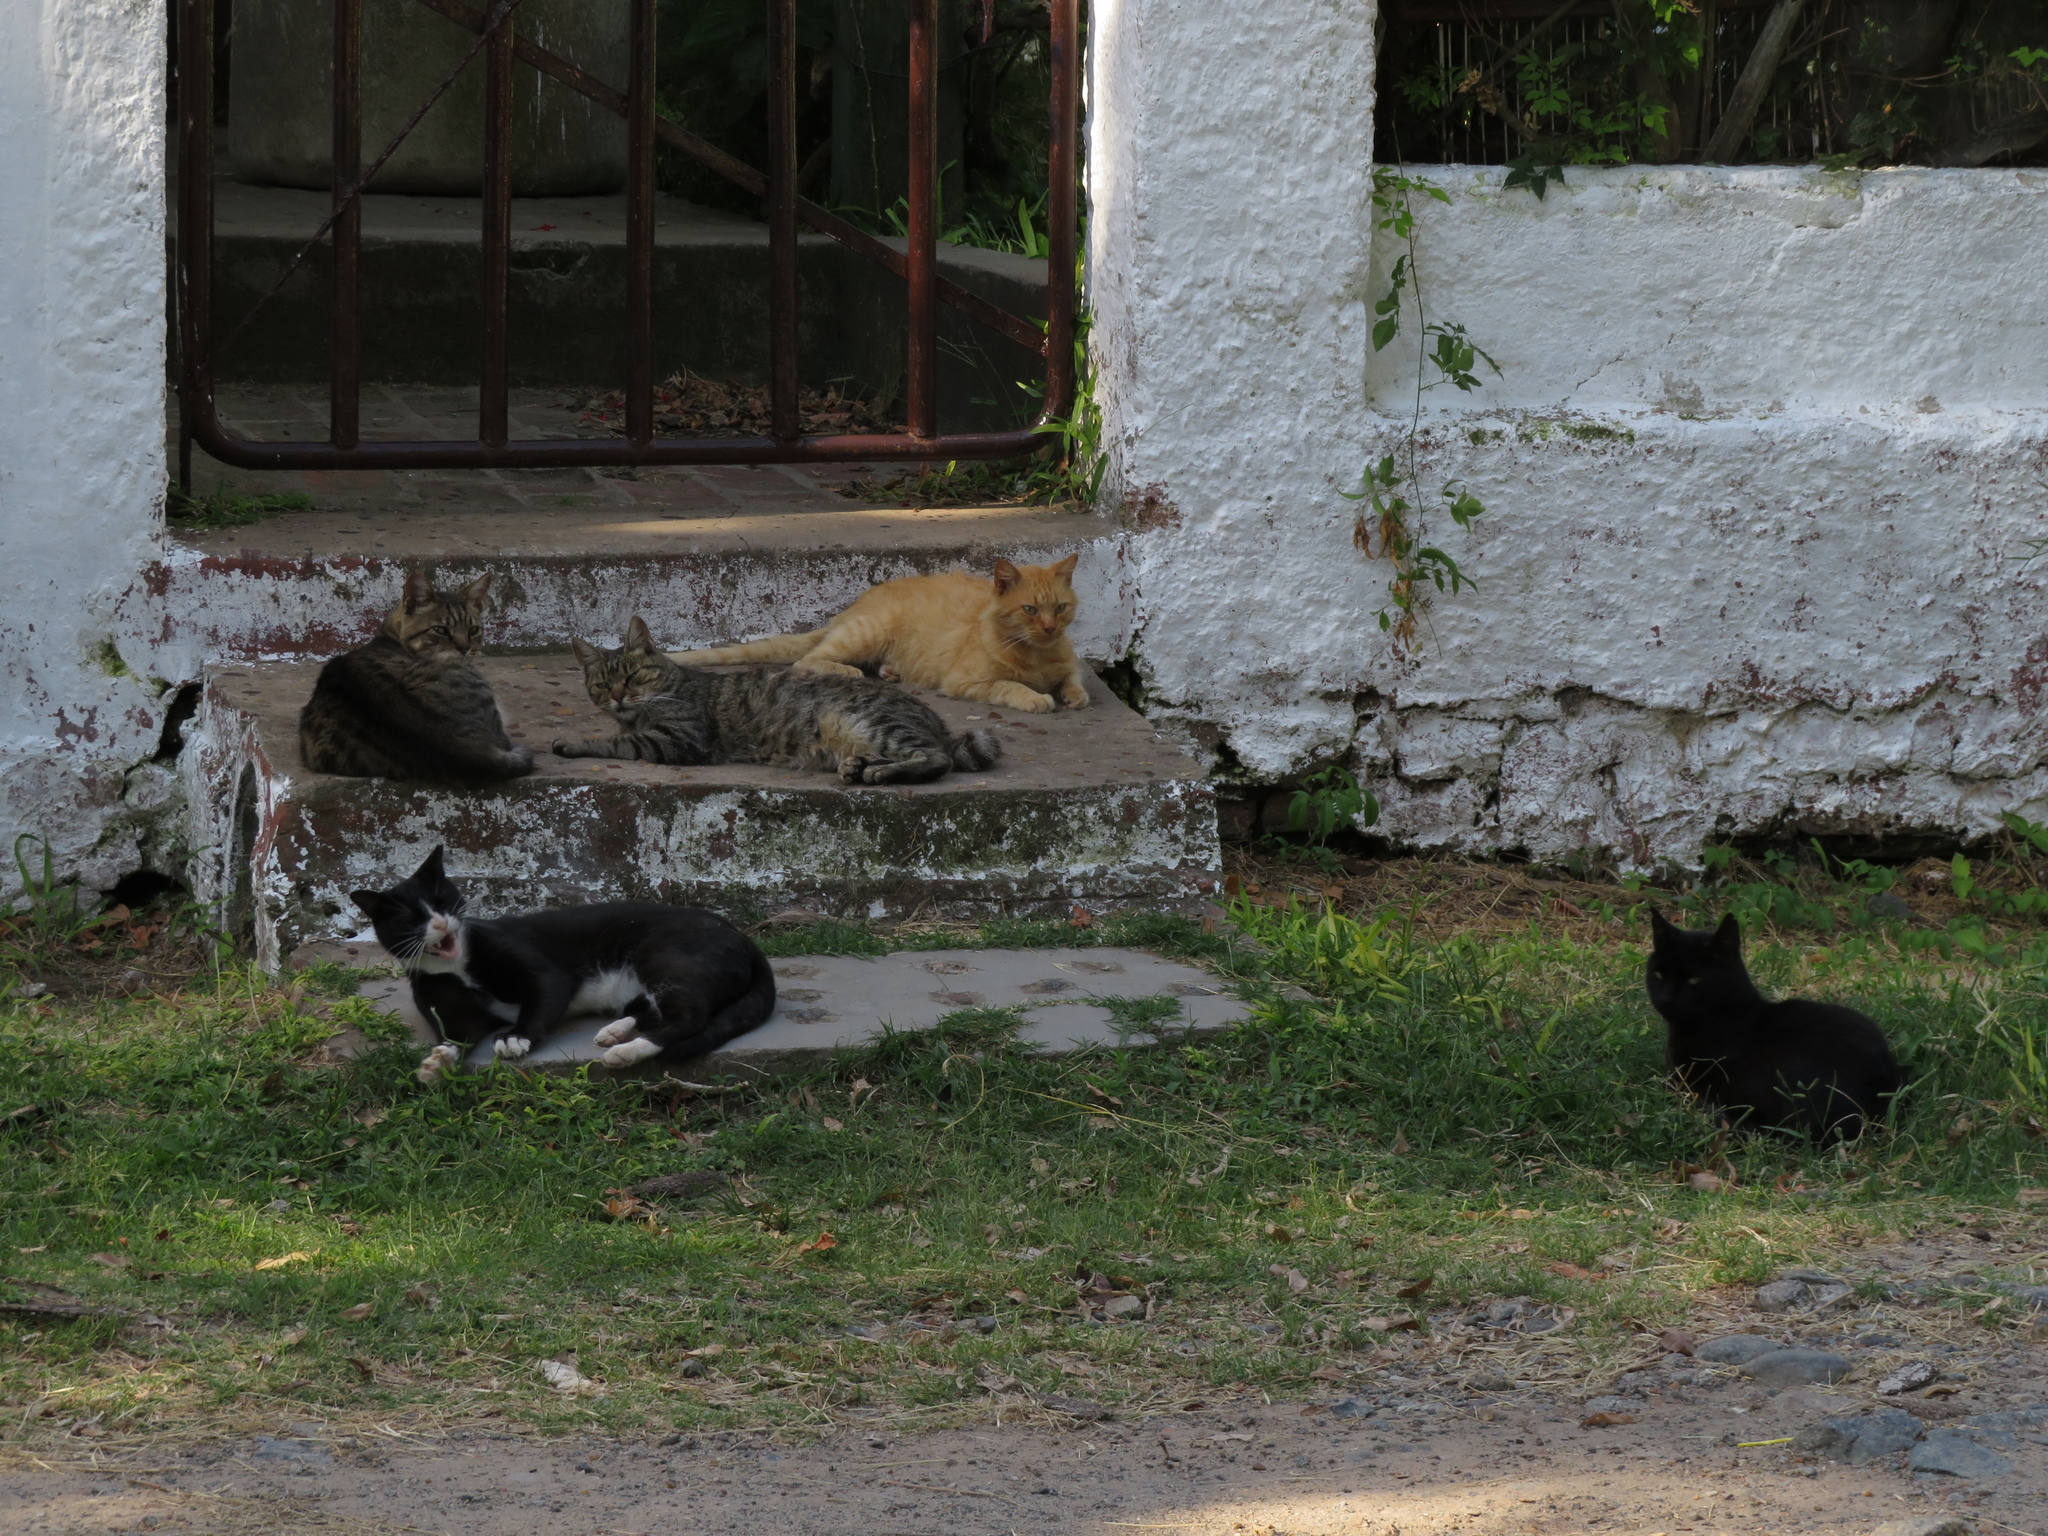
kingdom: Animalia
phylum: Chordata
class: Mammalia
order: Carnivora
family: Felidae
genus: Felis
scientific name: Felis catus
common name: Domestic cat
